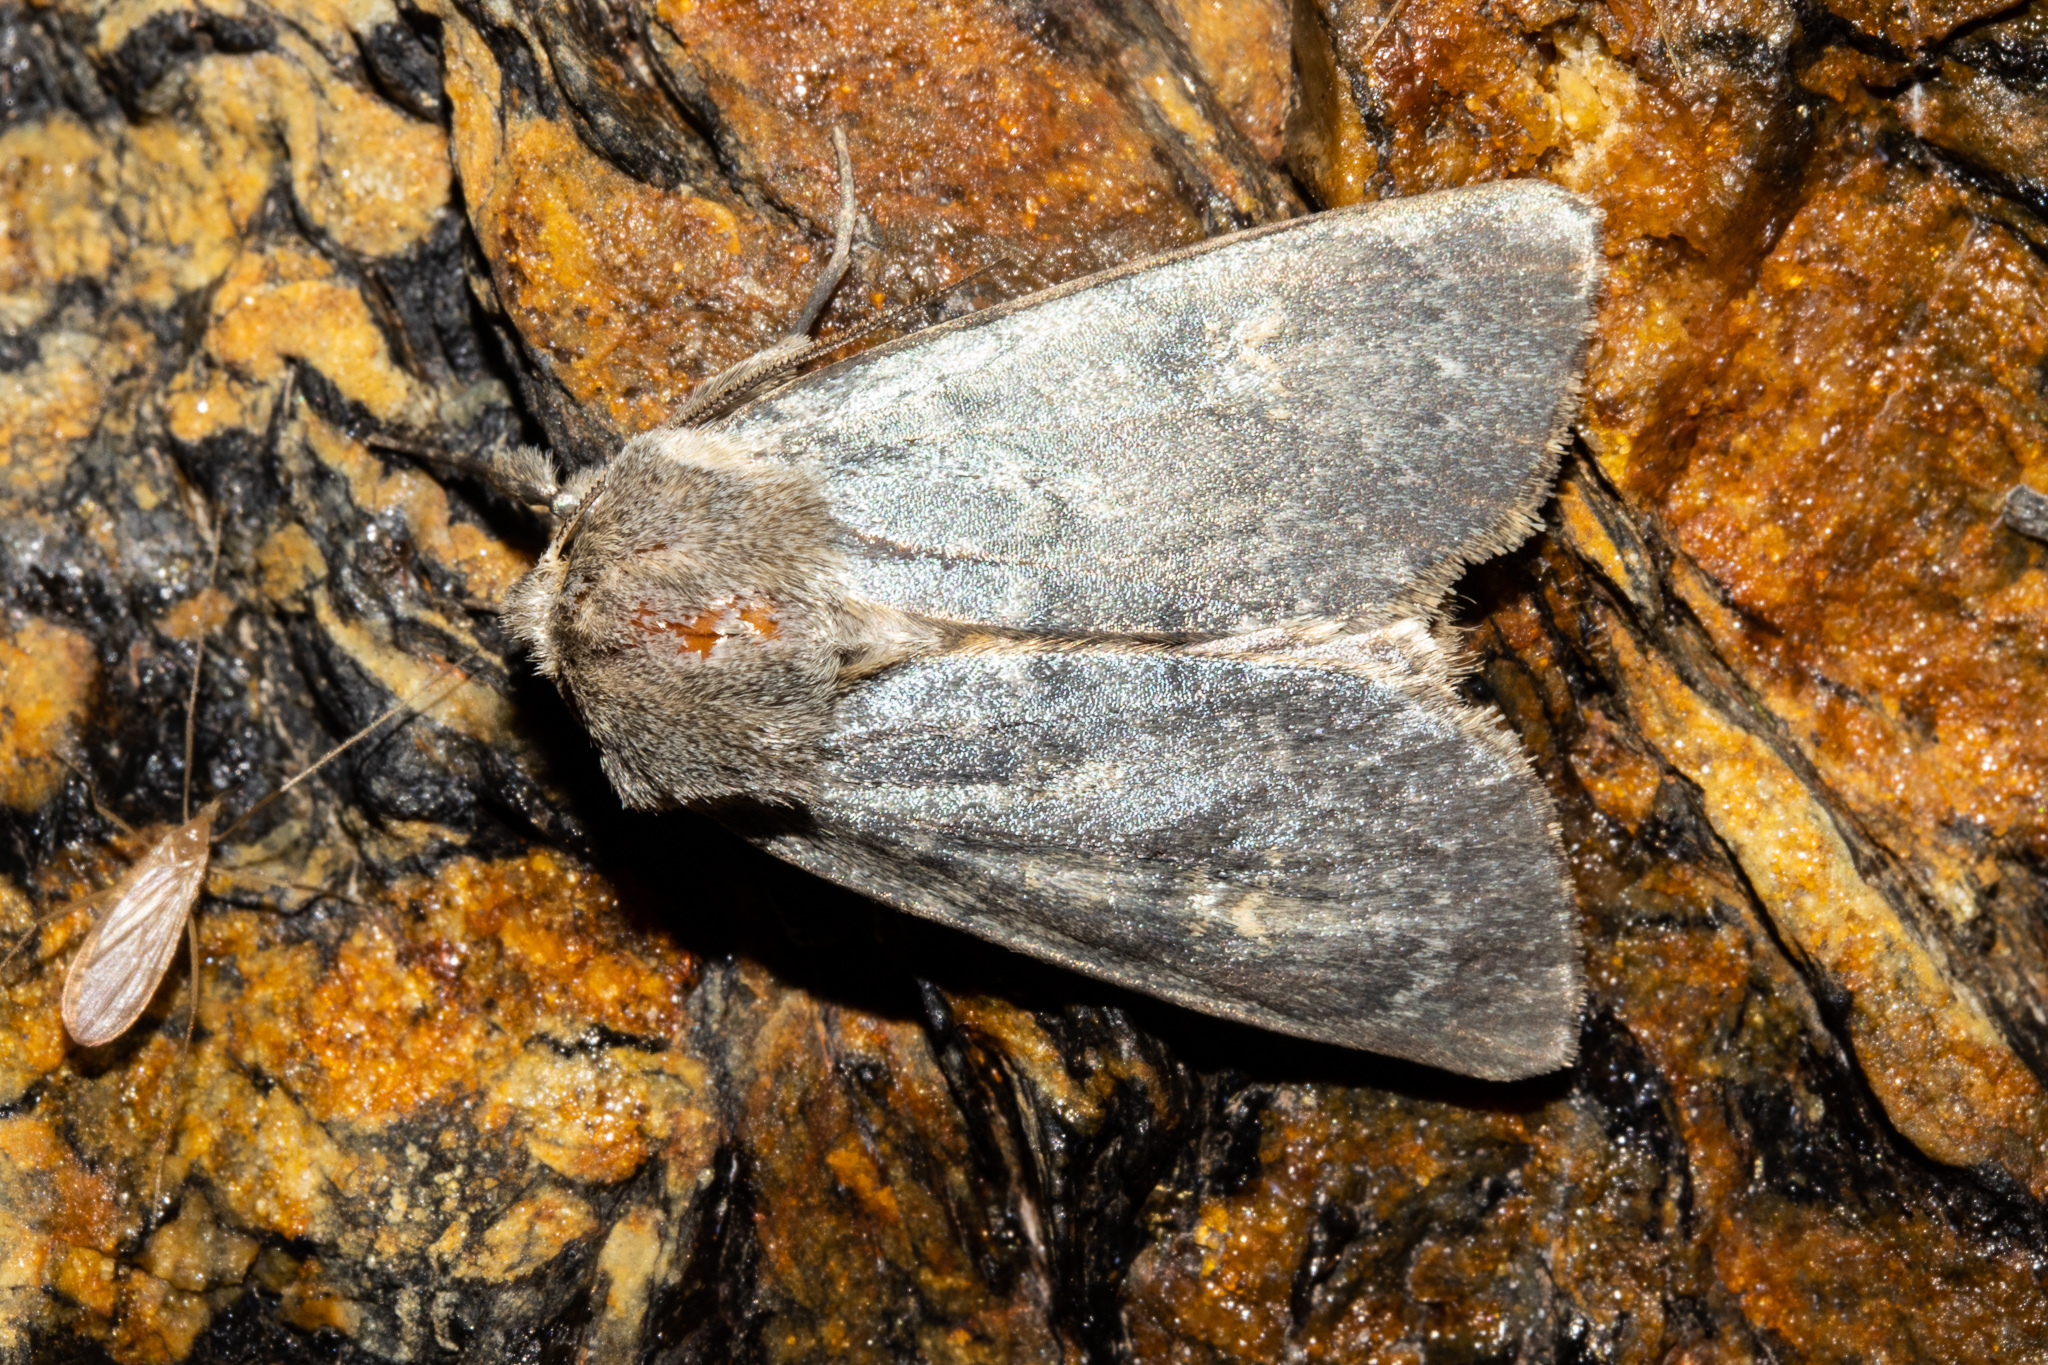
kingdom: Animalia
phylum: Arthropoda
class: Insecta
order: Lepidoptera
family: Noctuidae
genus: Ichneutica
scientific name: Ichneutica
